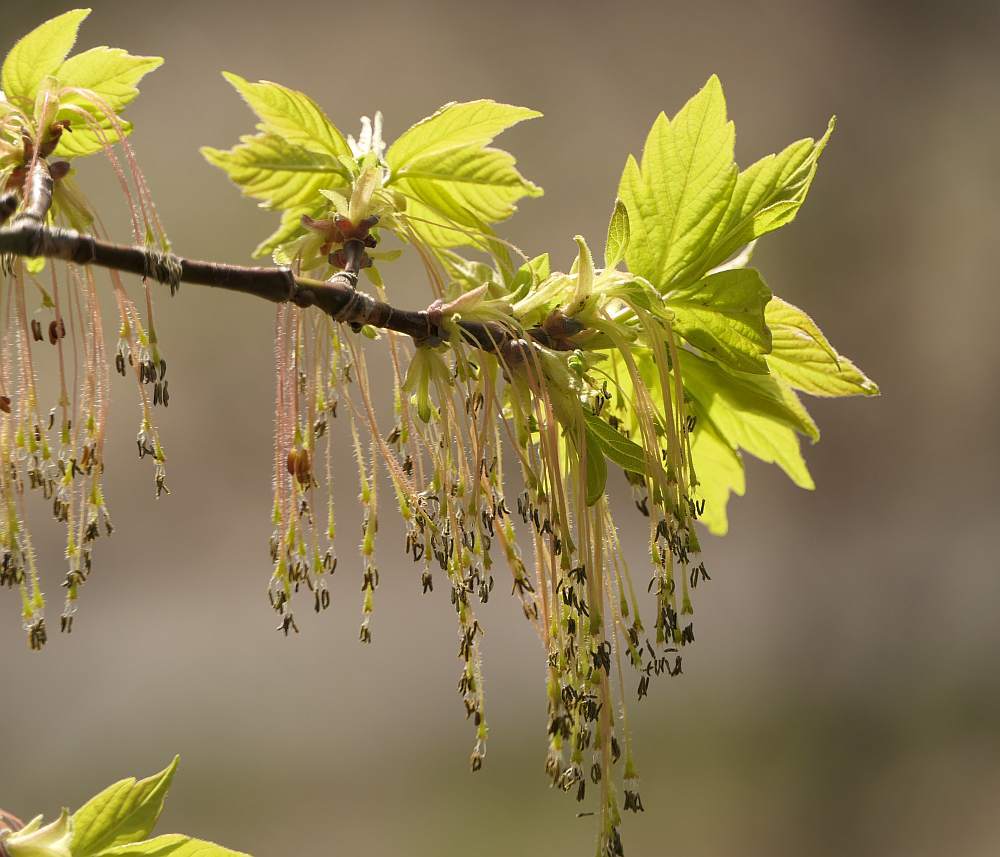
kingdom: Plantae
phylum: Tracheophyta
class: Magnoliopsida
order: Sapindales
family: Sapindaceae
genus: Acer
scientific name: Acer negundo
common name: Ashleaf maple
